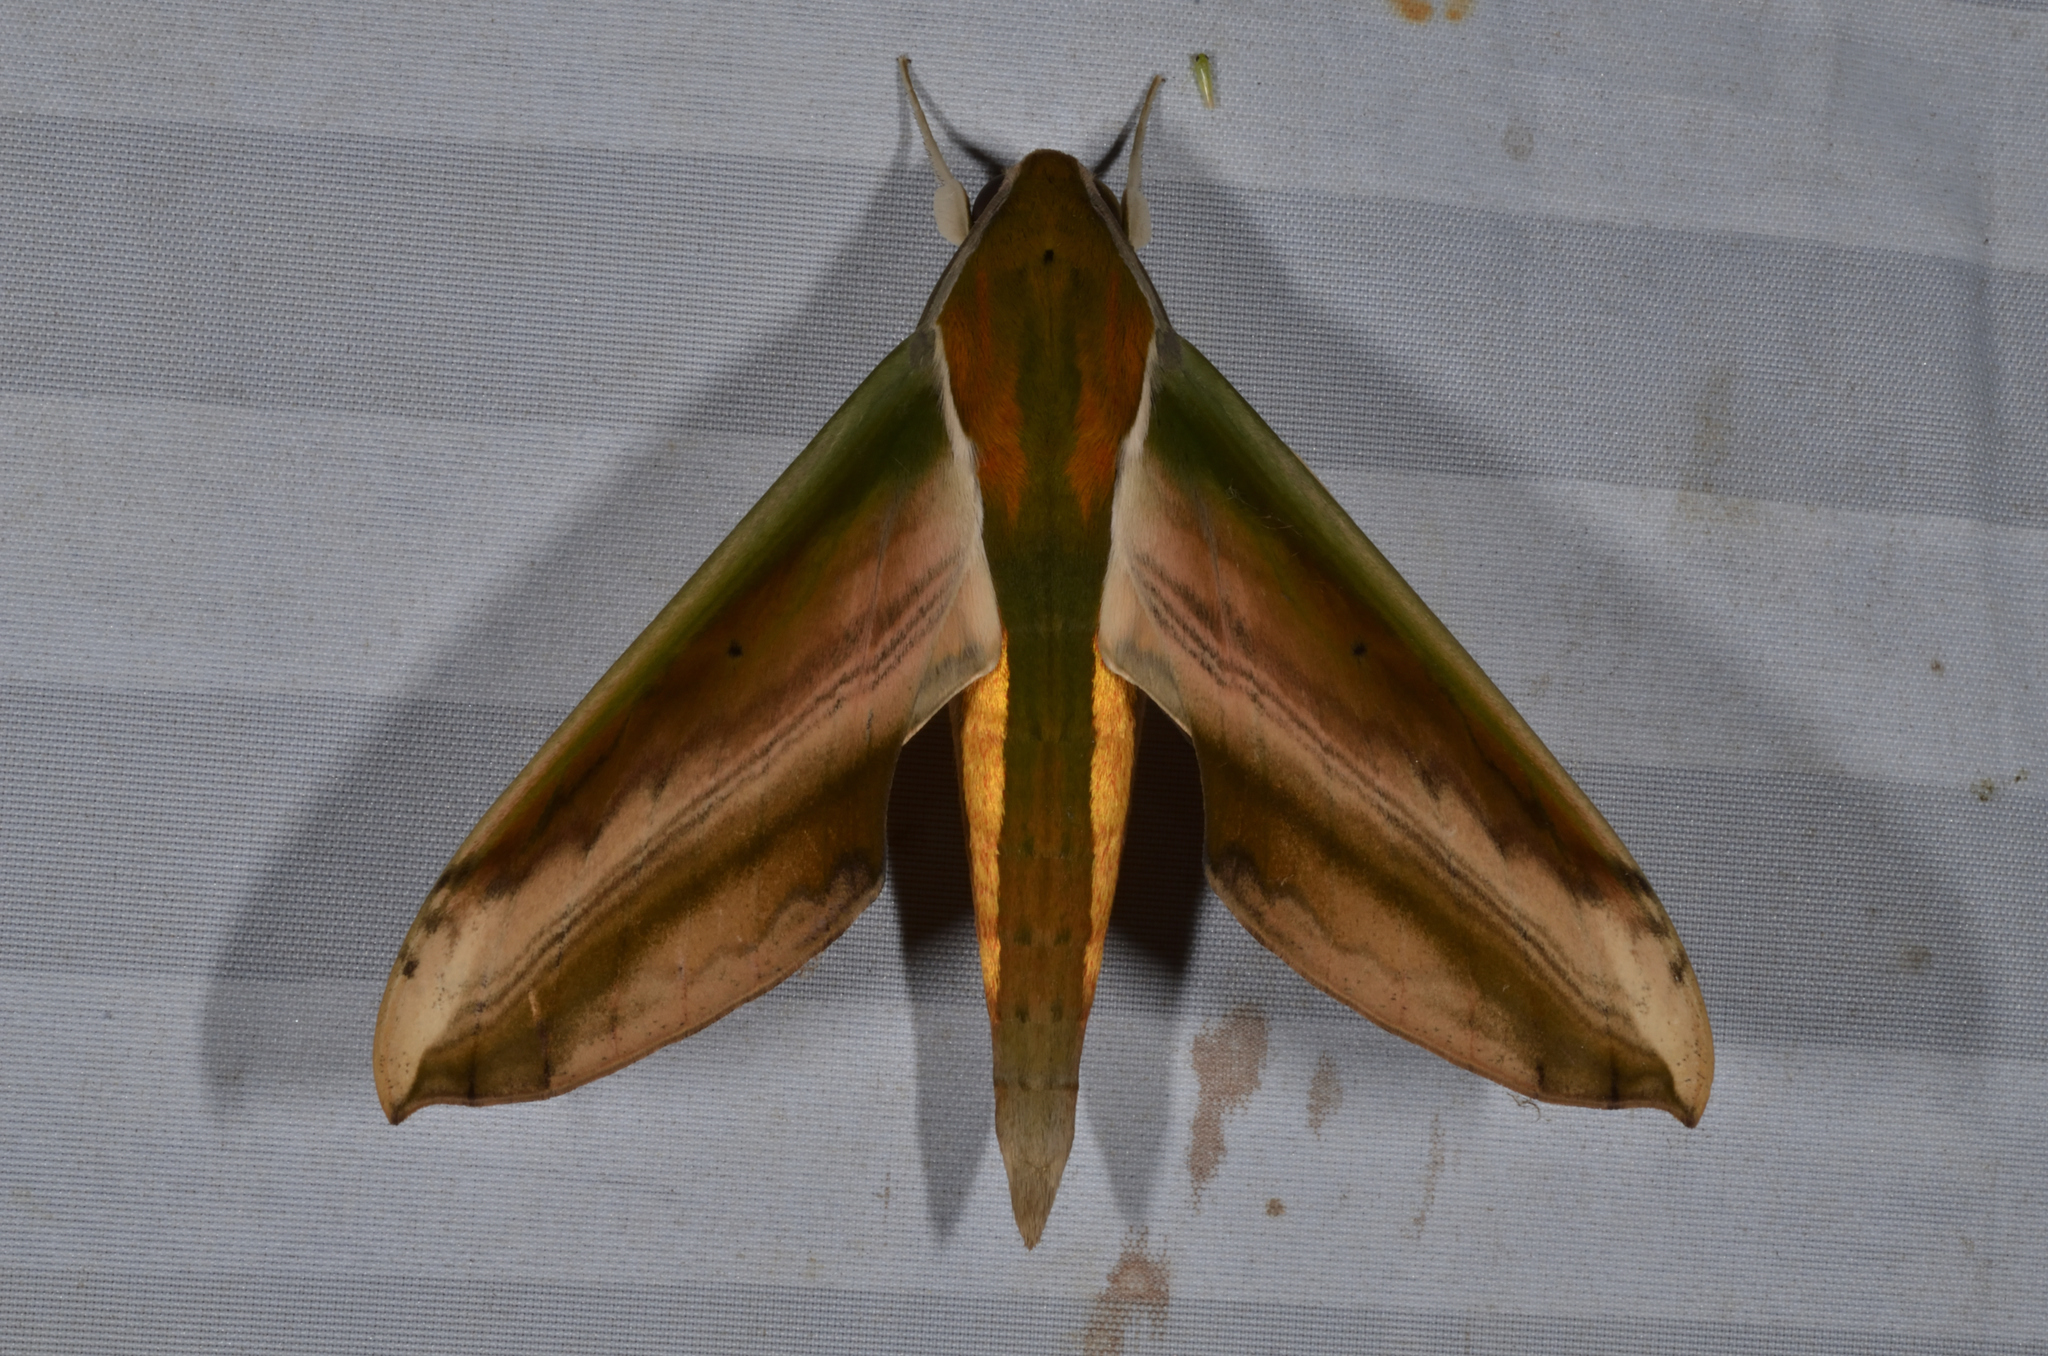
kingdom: Animalia
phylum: Arthropoda
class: Insecta
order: Lepidoptera
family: Sphingidae
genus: Theretra
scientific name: Theretra nessus
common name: Yam hawk moth
